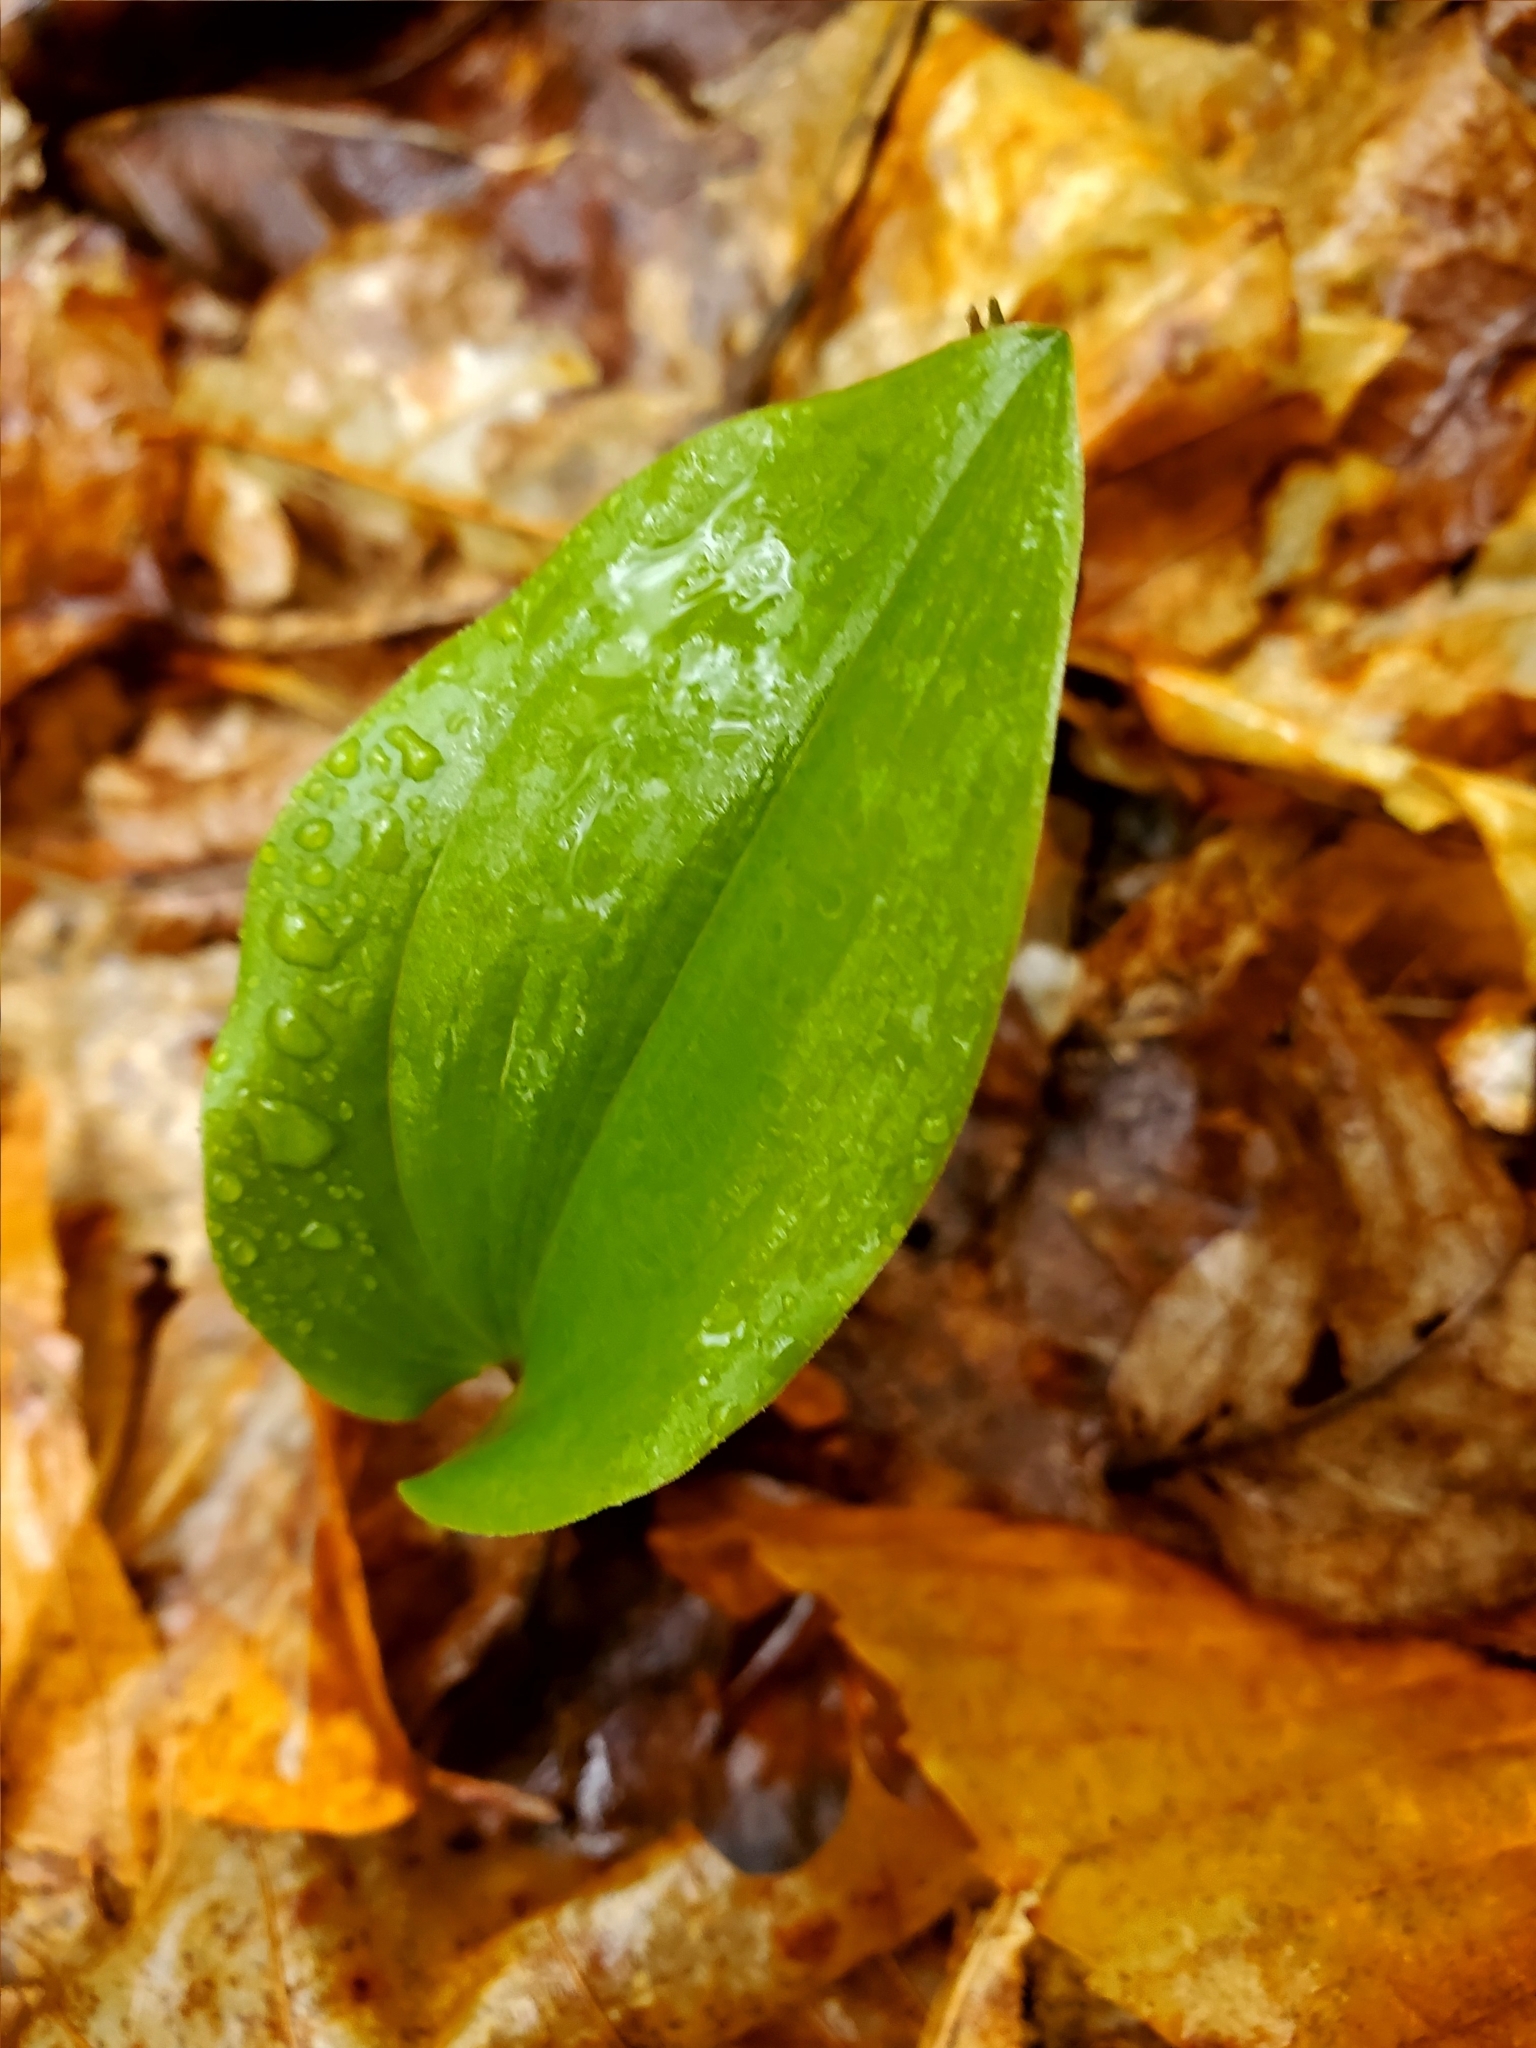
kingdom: Plantae
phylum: Tracheophyta
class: Liliopsida
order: Asparagales
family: Asparagaceae
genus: Maianthemum
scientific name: Maianthemum canadense
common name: False lily-of-the-valley
